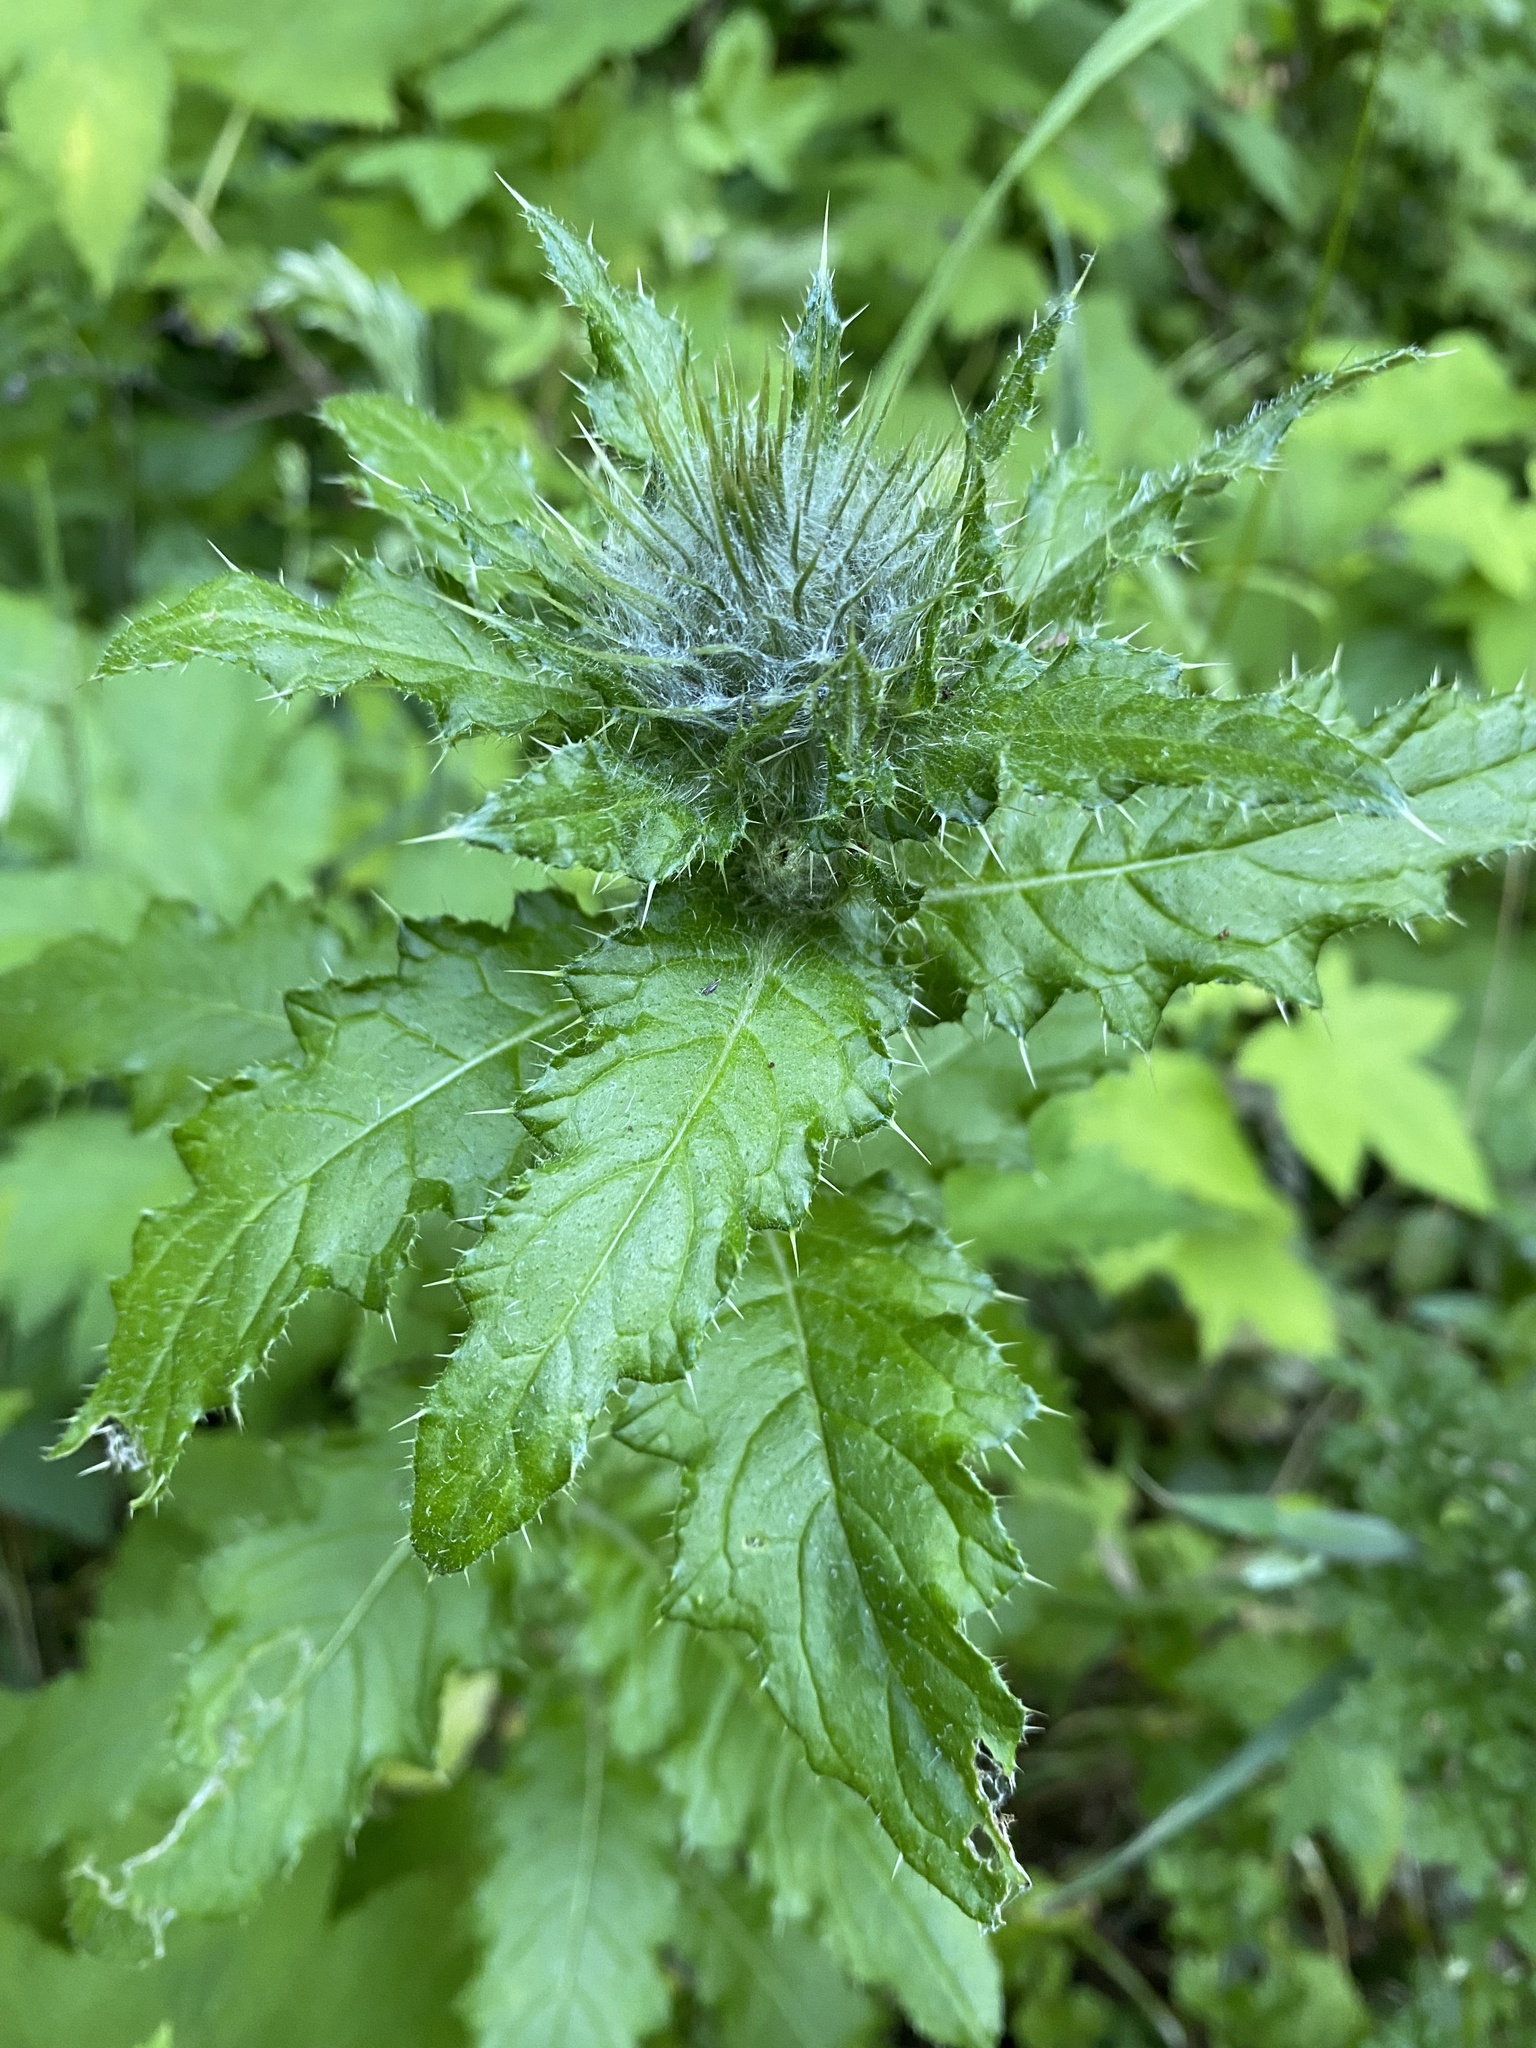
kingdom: Plantae
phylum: Tracheophyta
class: Magnoliopsida
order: Asterales
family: Asteraceae
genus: Cirsium
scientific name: Cirsium brevistylum
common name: Indian thistle
